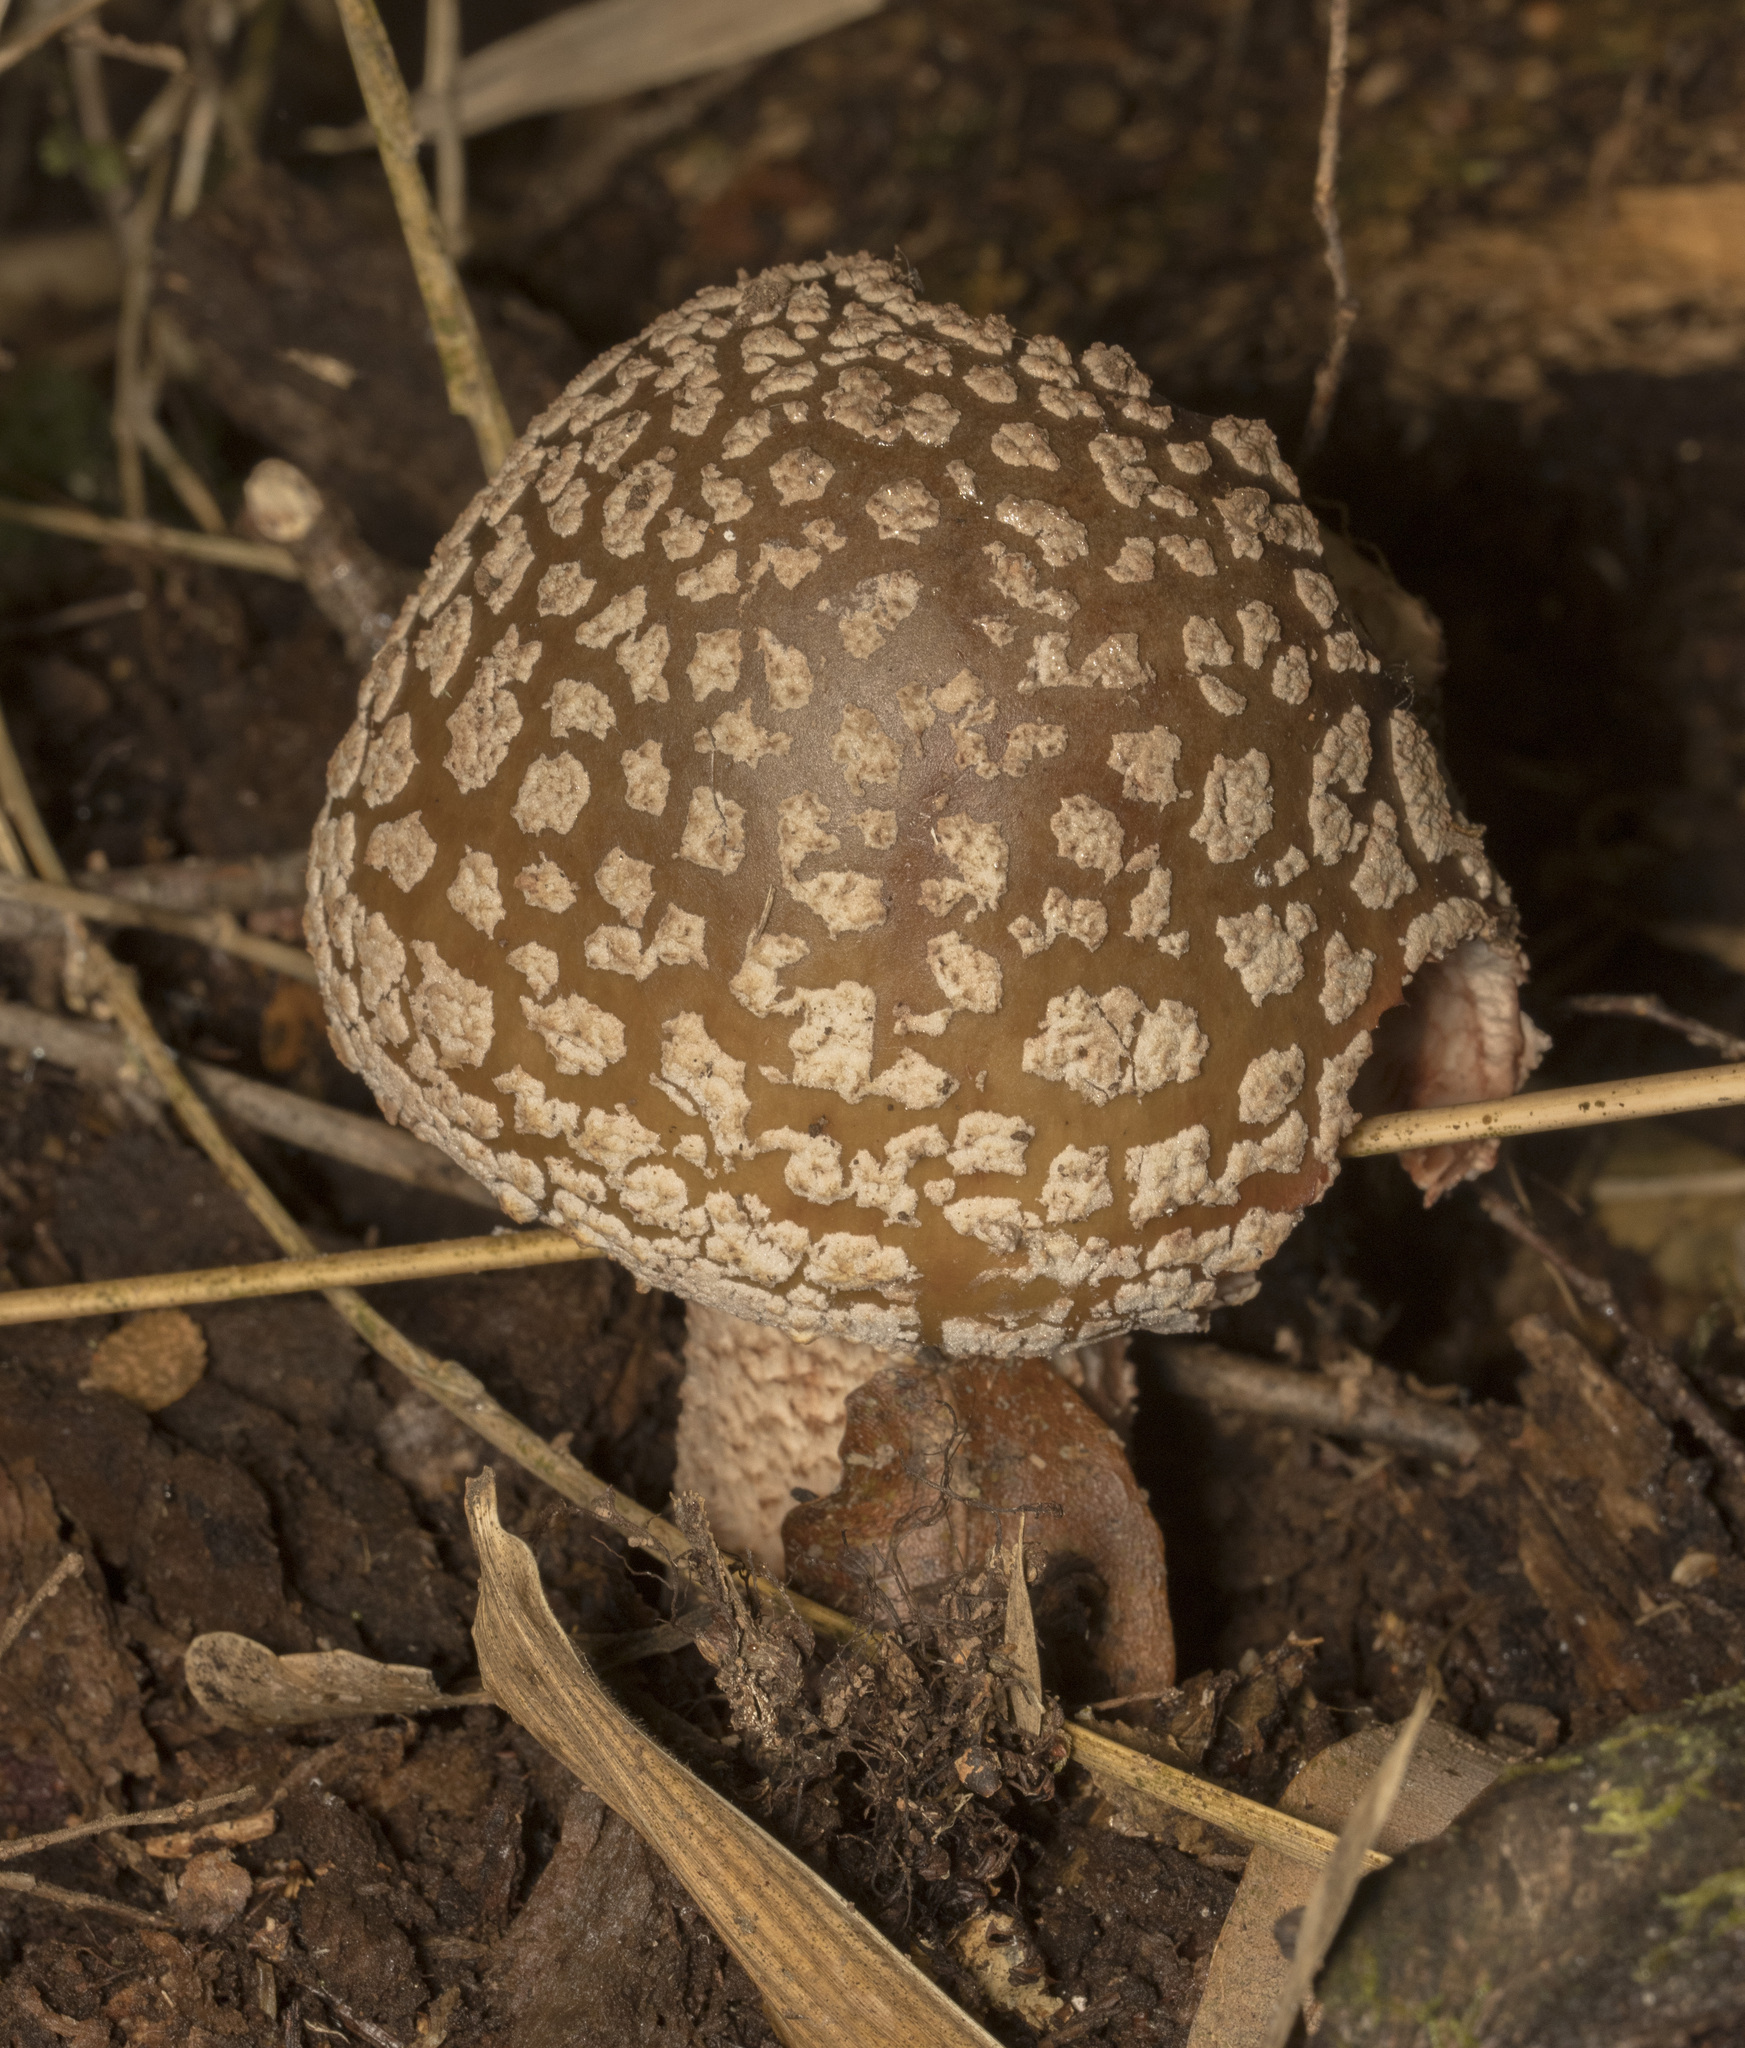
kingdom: Fungi
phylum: Basidiomycota
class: Agaricomycetes
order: Agaricales
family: Amanitaceae
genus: Amanita
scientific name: Amanita rubescens
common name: Blusher
